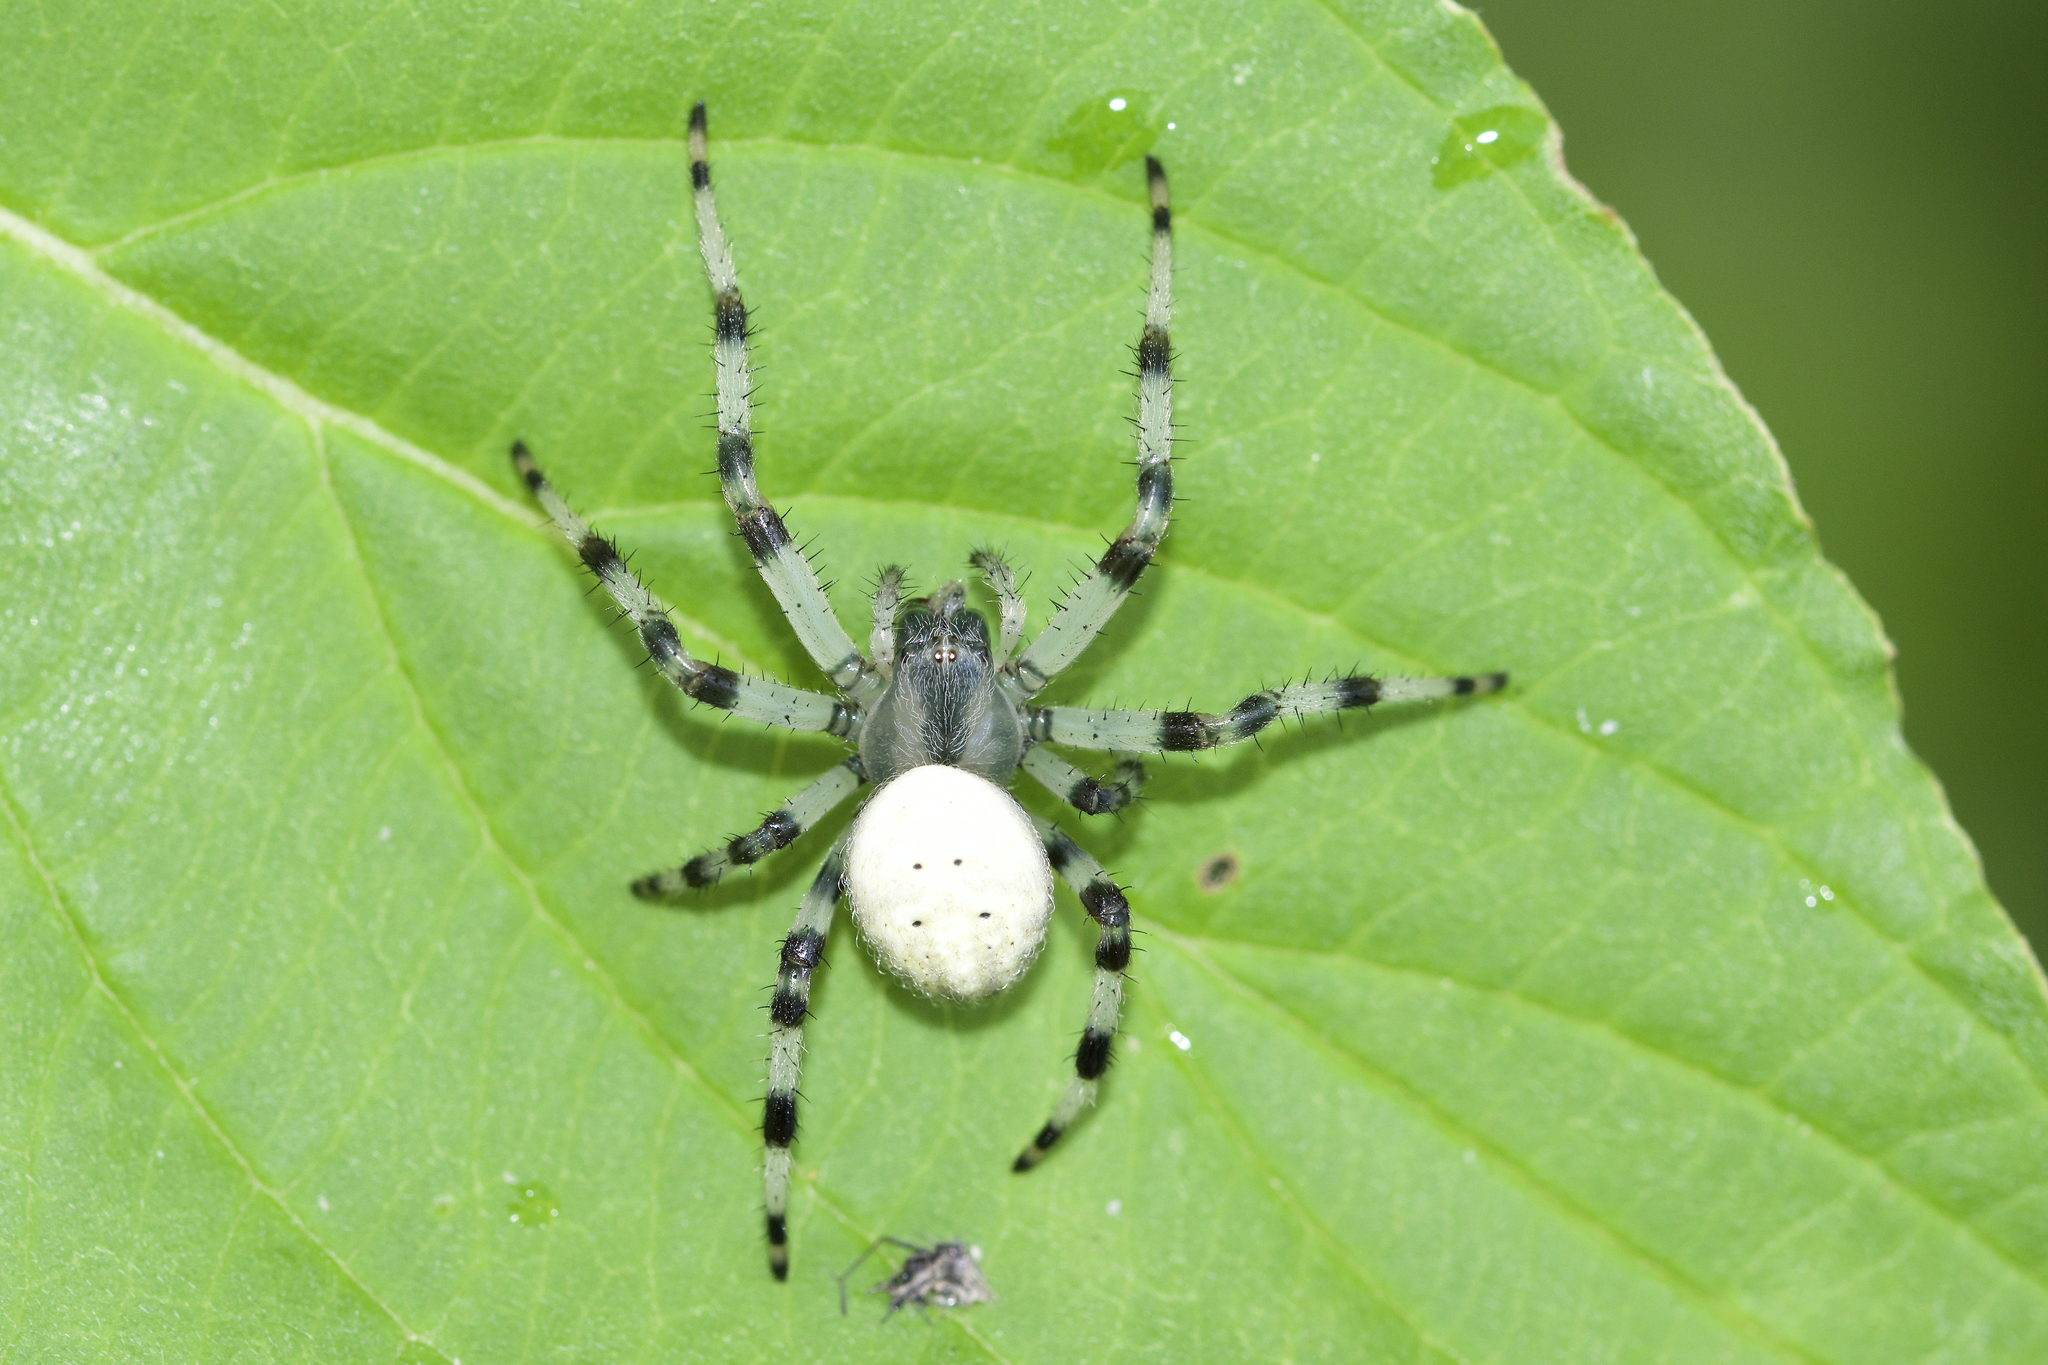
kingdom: Animalia
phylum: Arthropoda
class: Arachnida
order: Araneae
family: Araneidae
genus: Araneus
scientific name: Araneus trifolium
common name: Shamrock orbweaver
